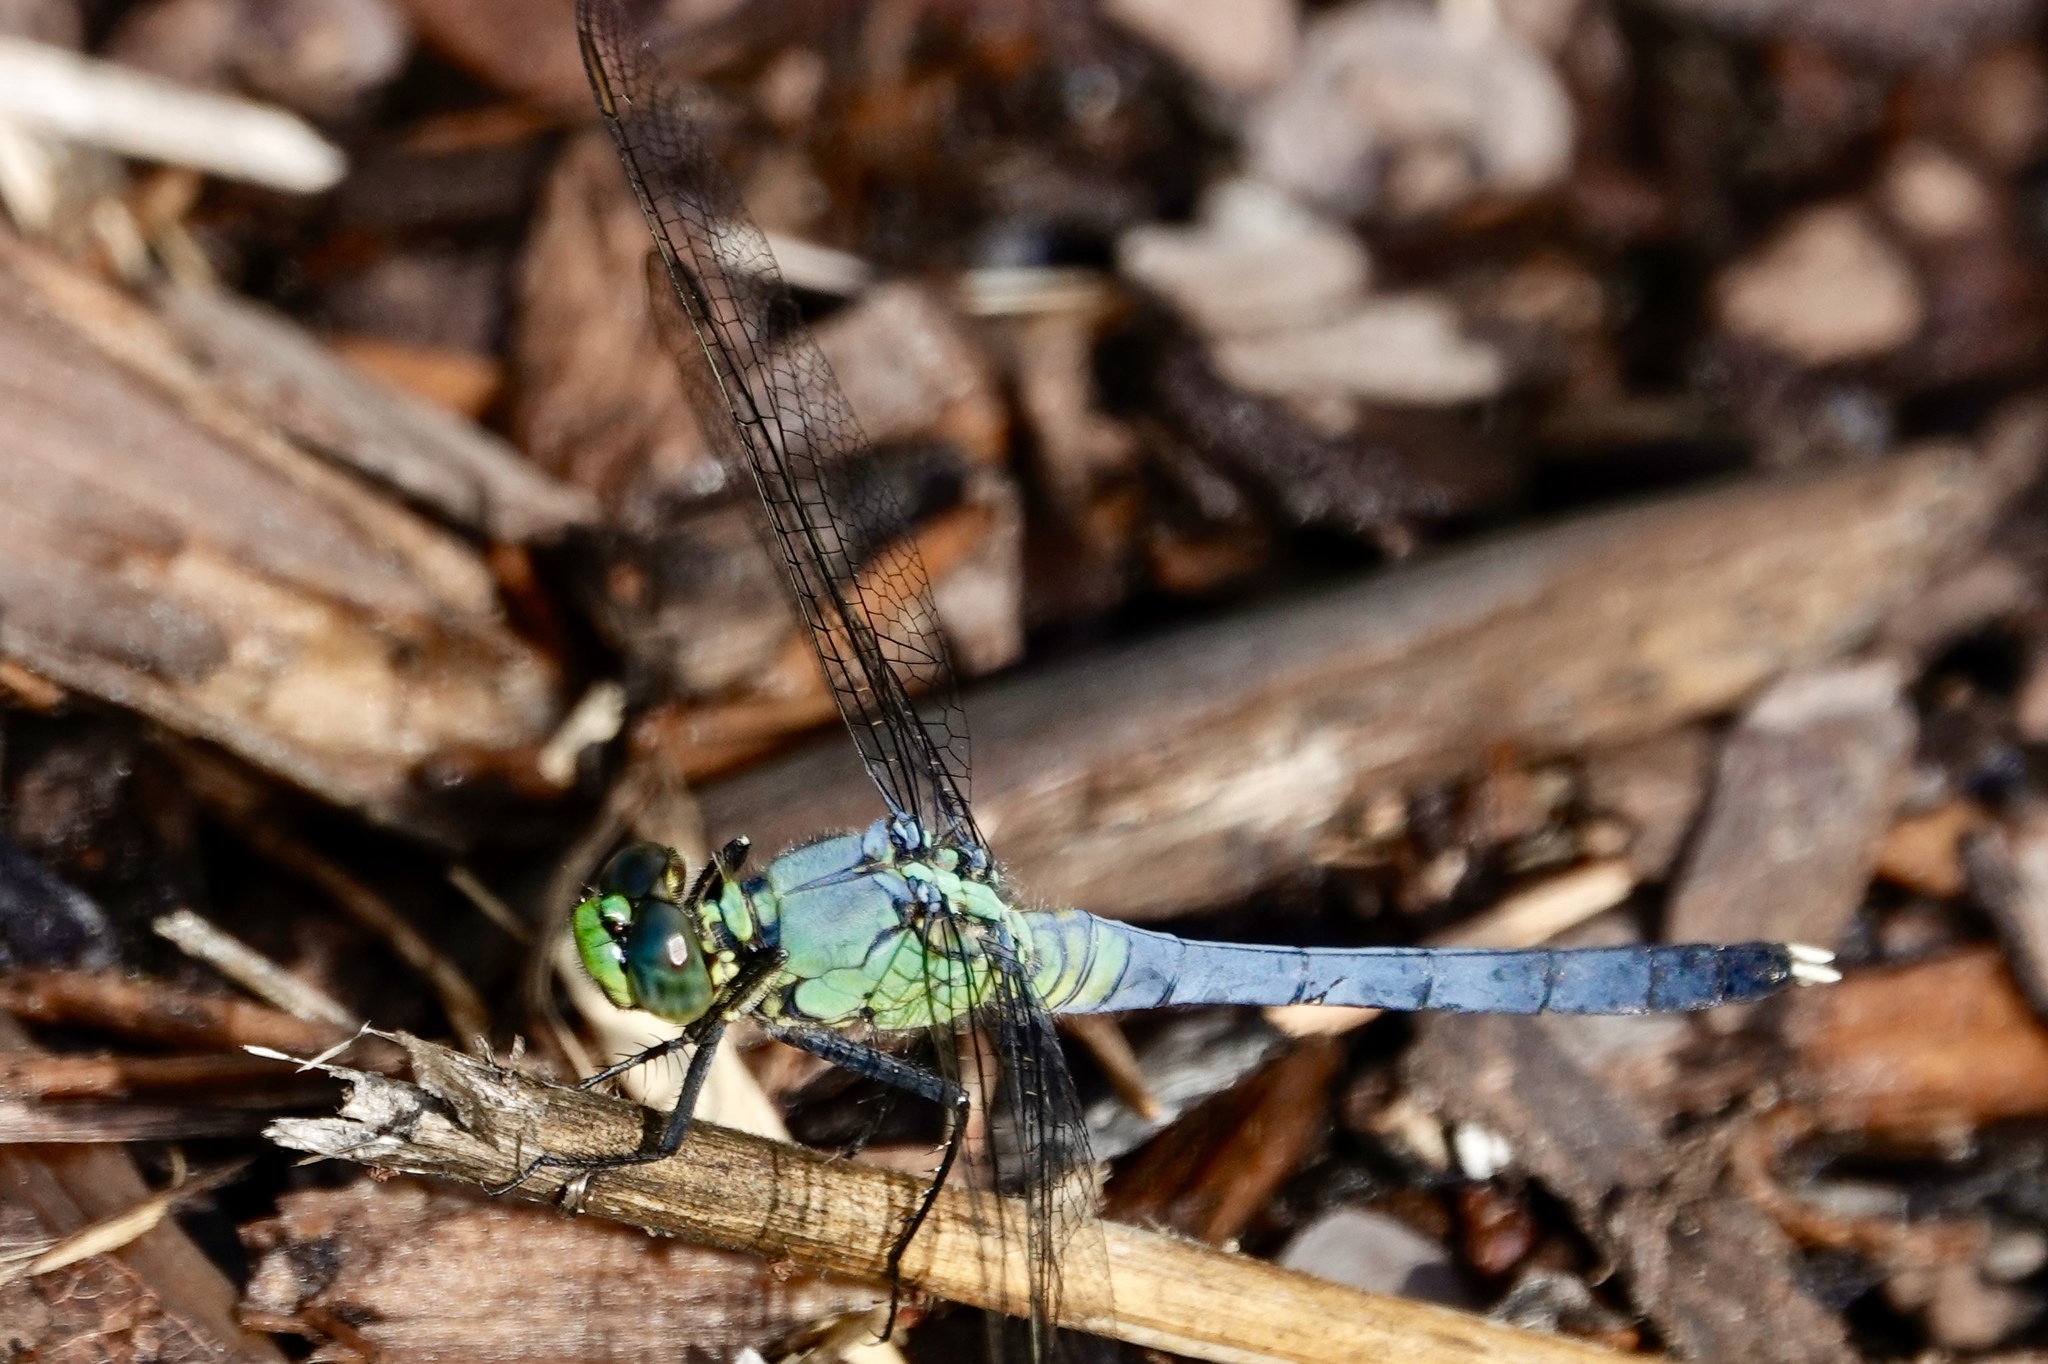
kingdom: Animalia
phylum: Arthropoda
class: Insecta
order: Odonata
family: Libellulidae
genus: Erythemis
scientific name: Erythemis simplicicollis
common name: Eastern pondhawk
